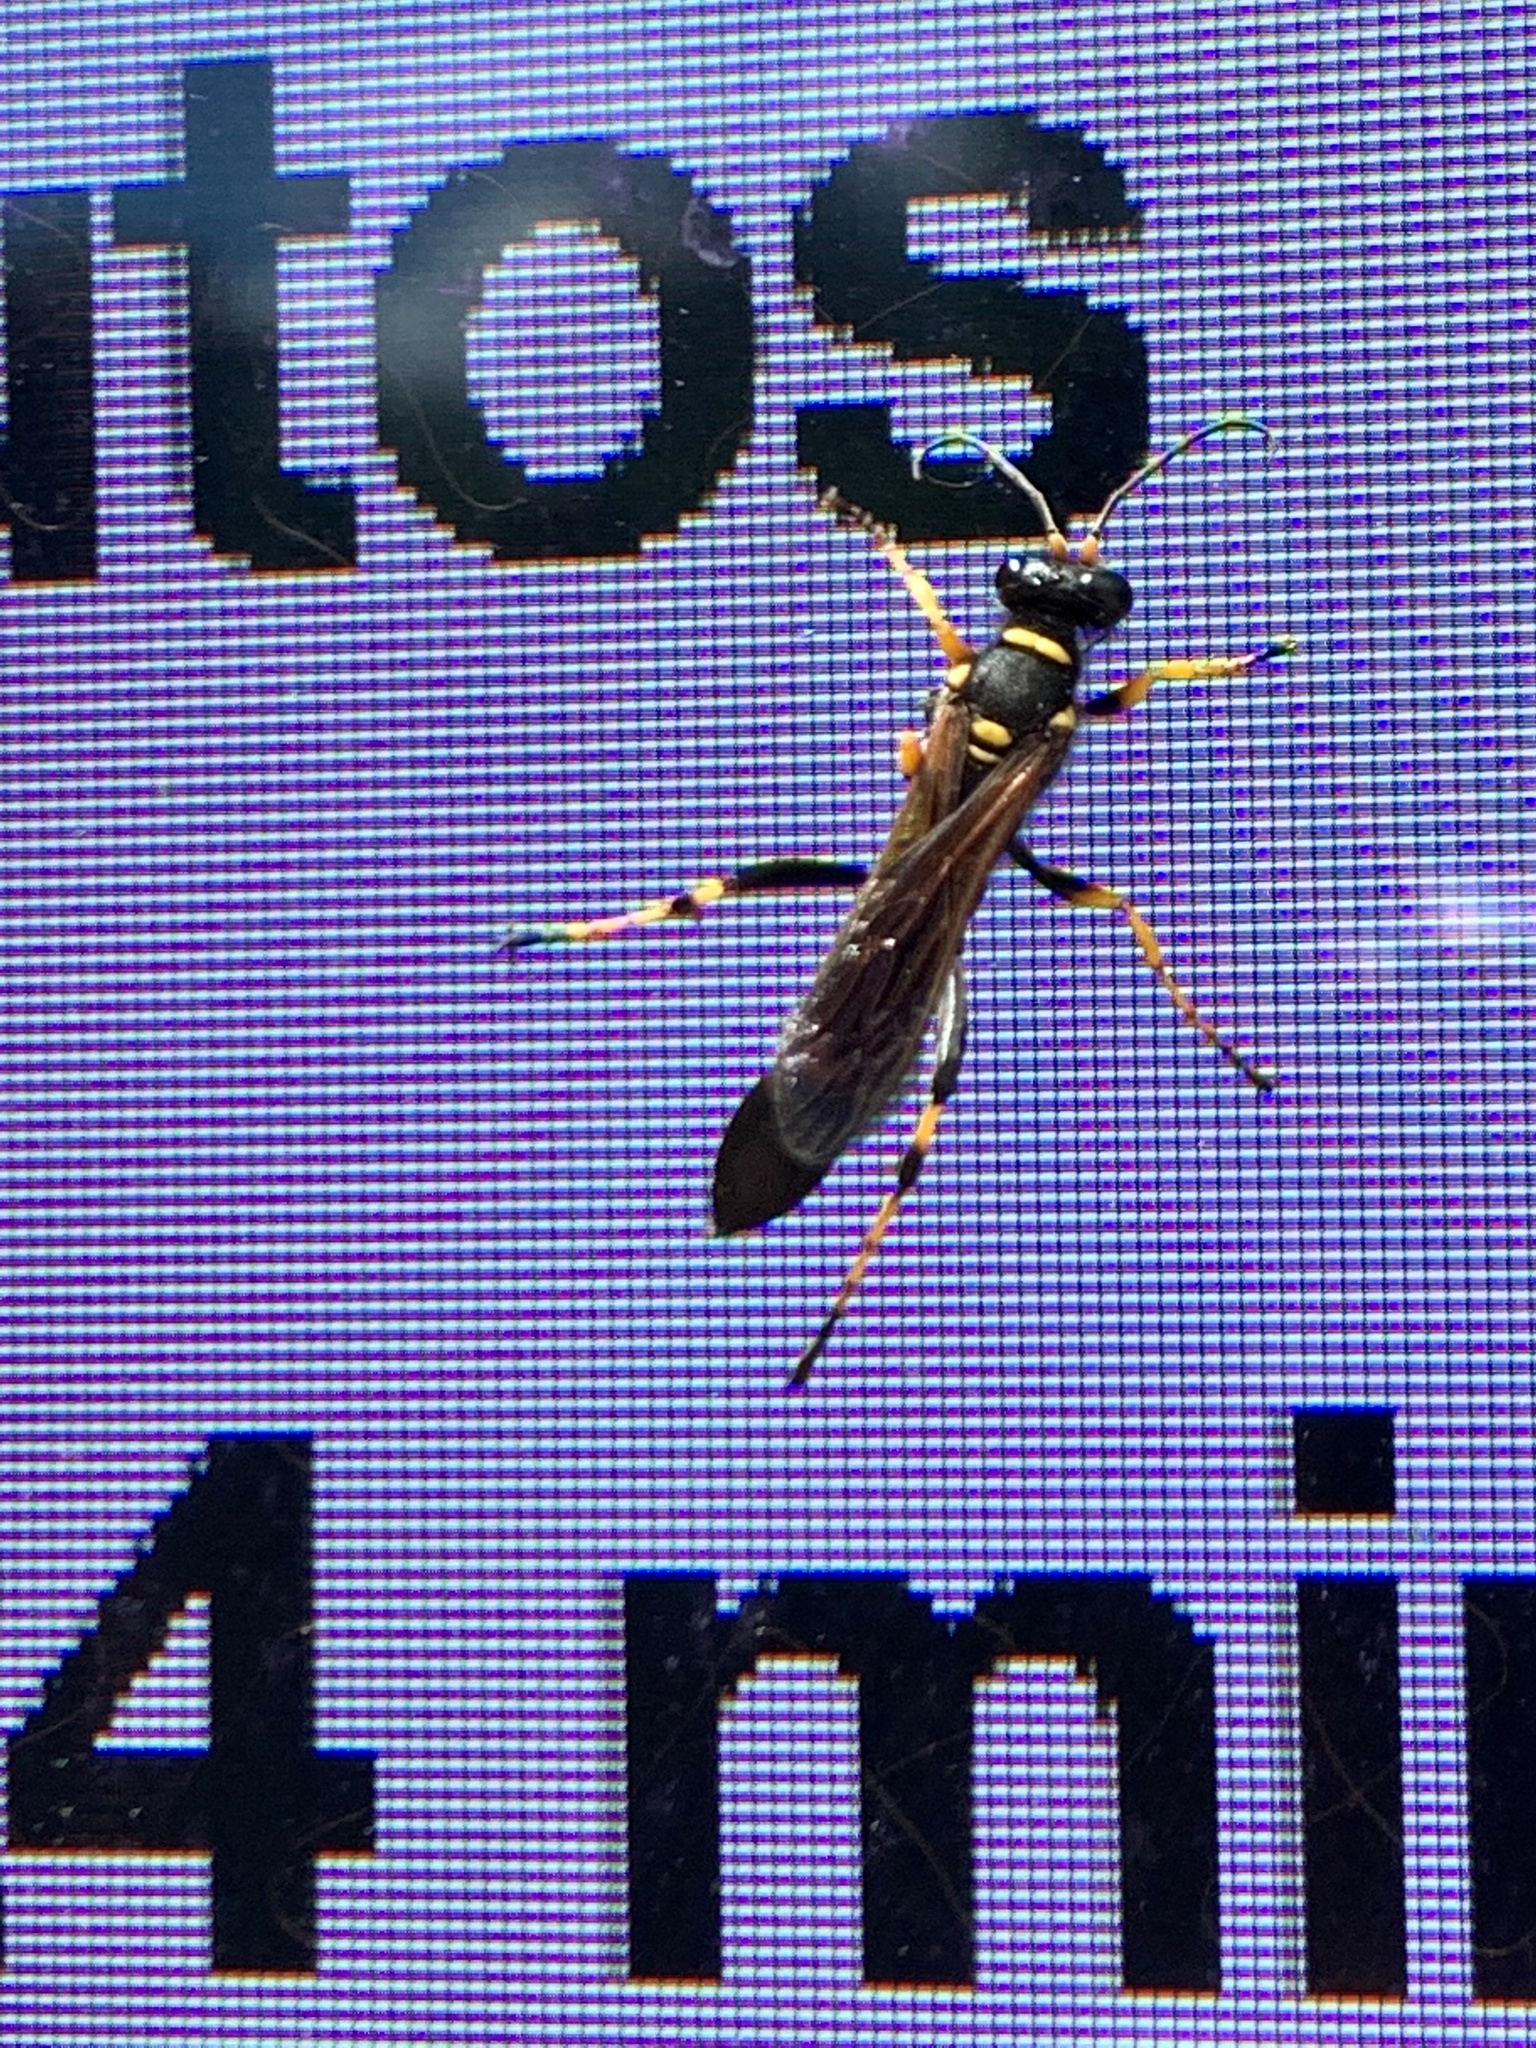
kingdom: Animalia
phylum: Arthropoda
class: Insecta
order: Hymenoptera
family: Sphecidae
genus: Sceliphron
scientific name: Sceliphron caementarium
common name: Mud dauber
